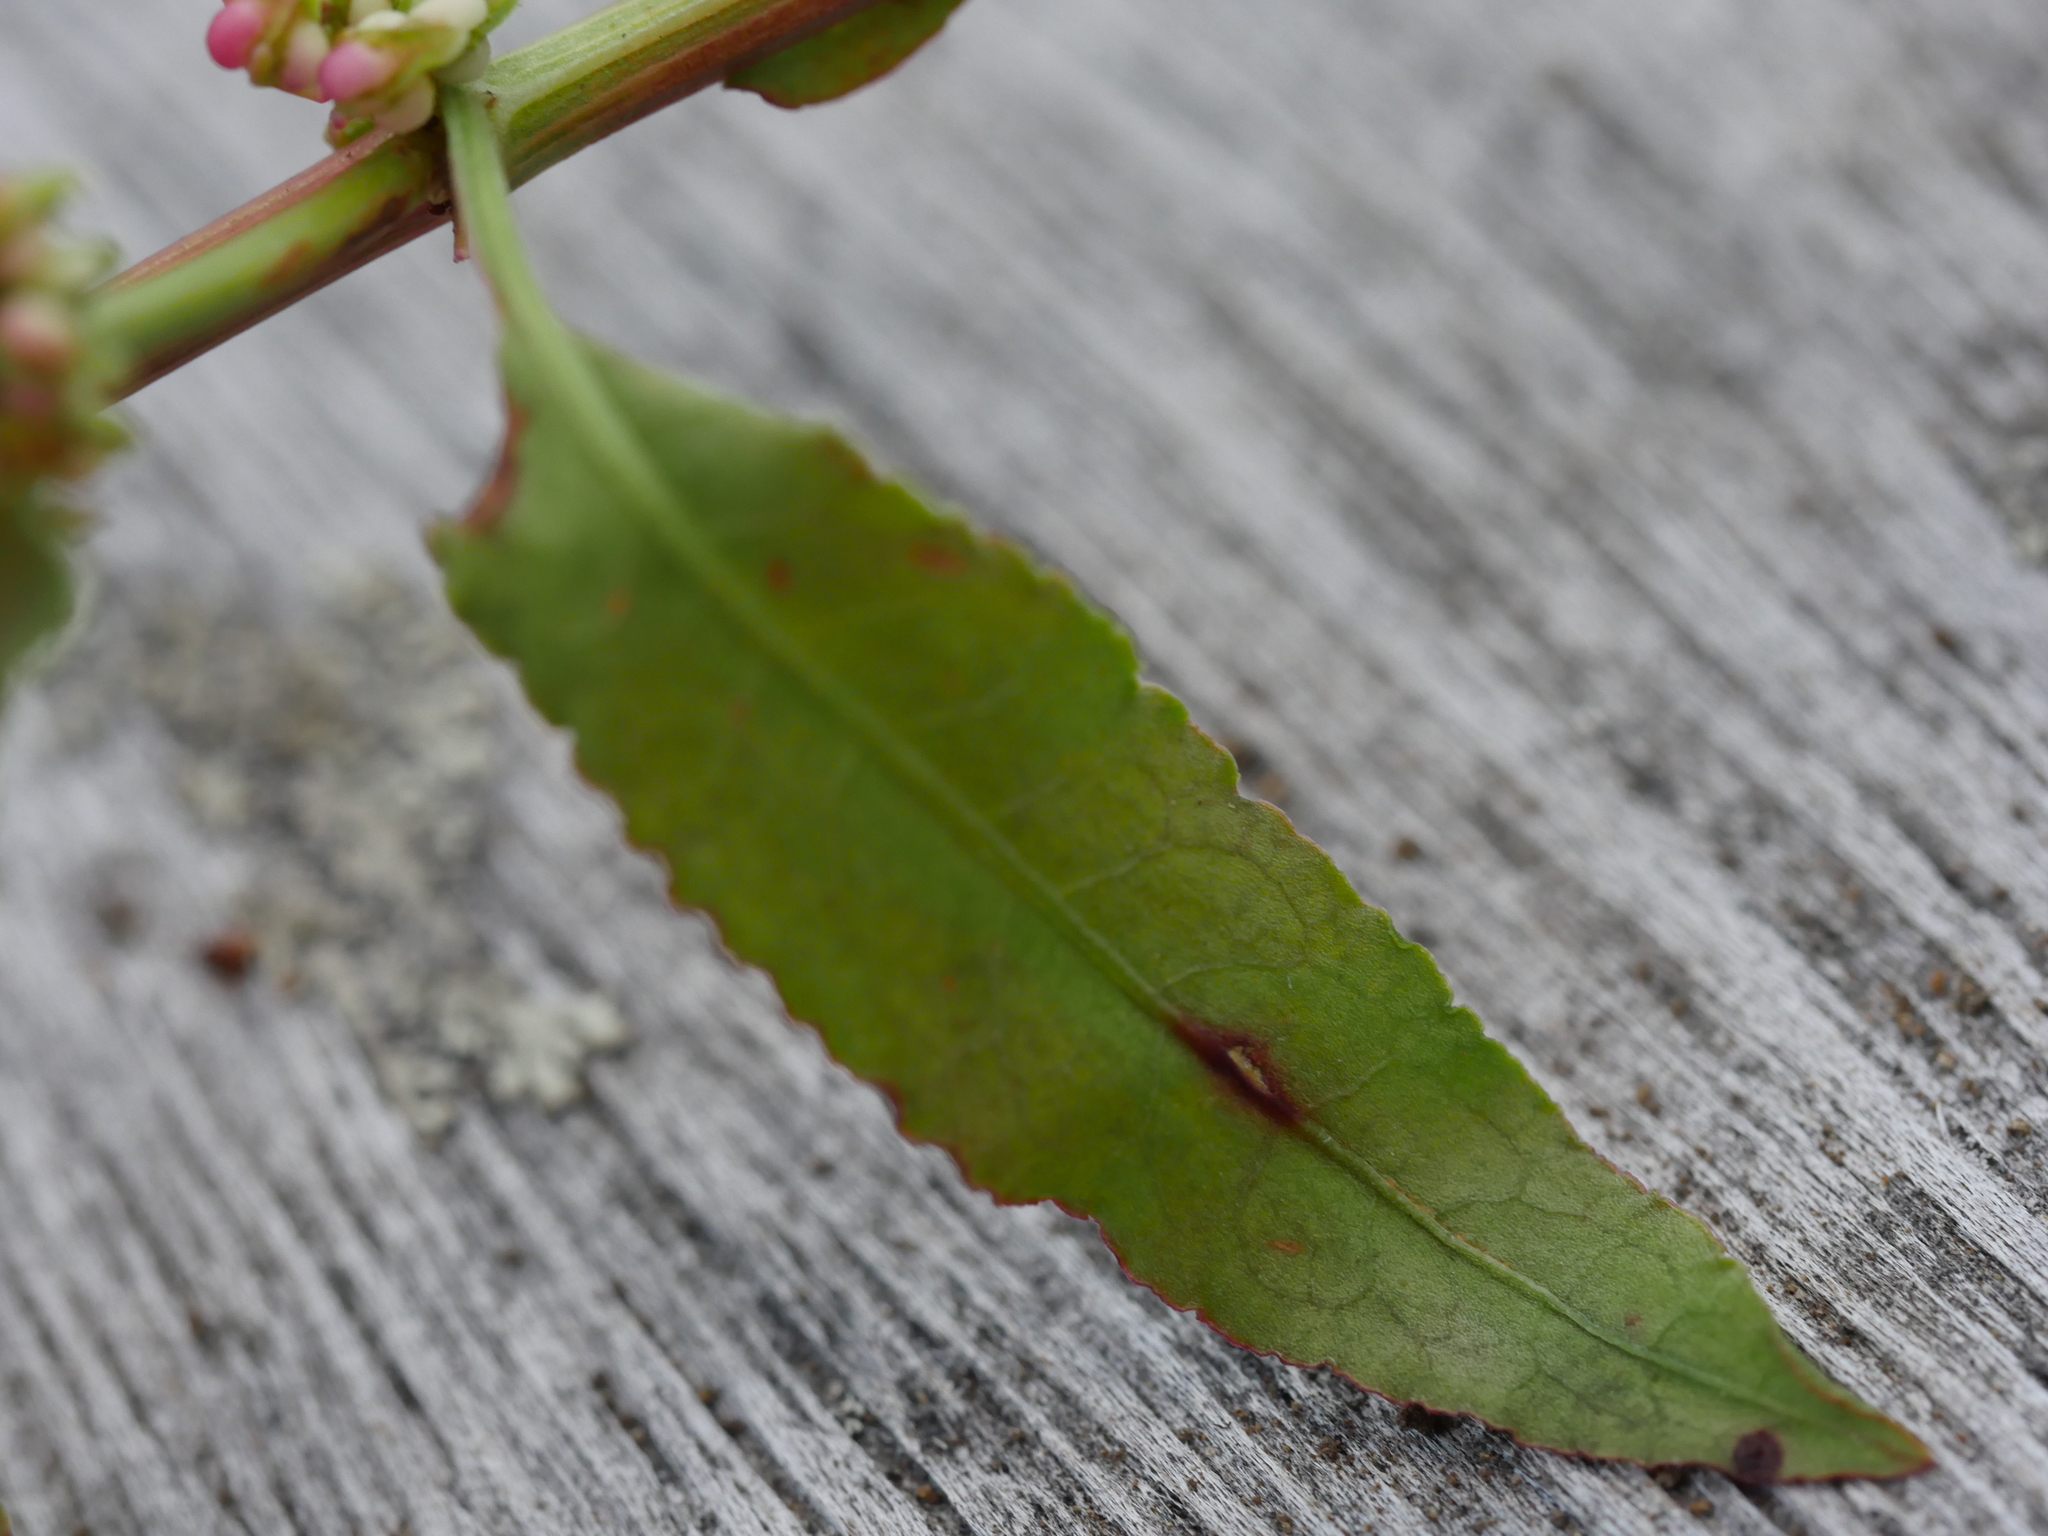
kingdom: Plantae
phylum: Tracheophyta
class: Magnoliopsida
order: Caryophyllales
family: Polygonaceae
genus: Rumex
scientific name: Rumex conglomeratus
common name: Clustered dock
